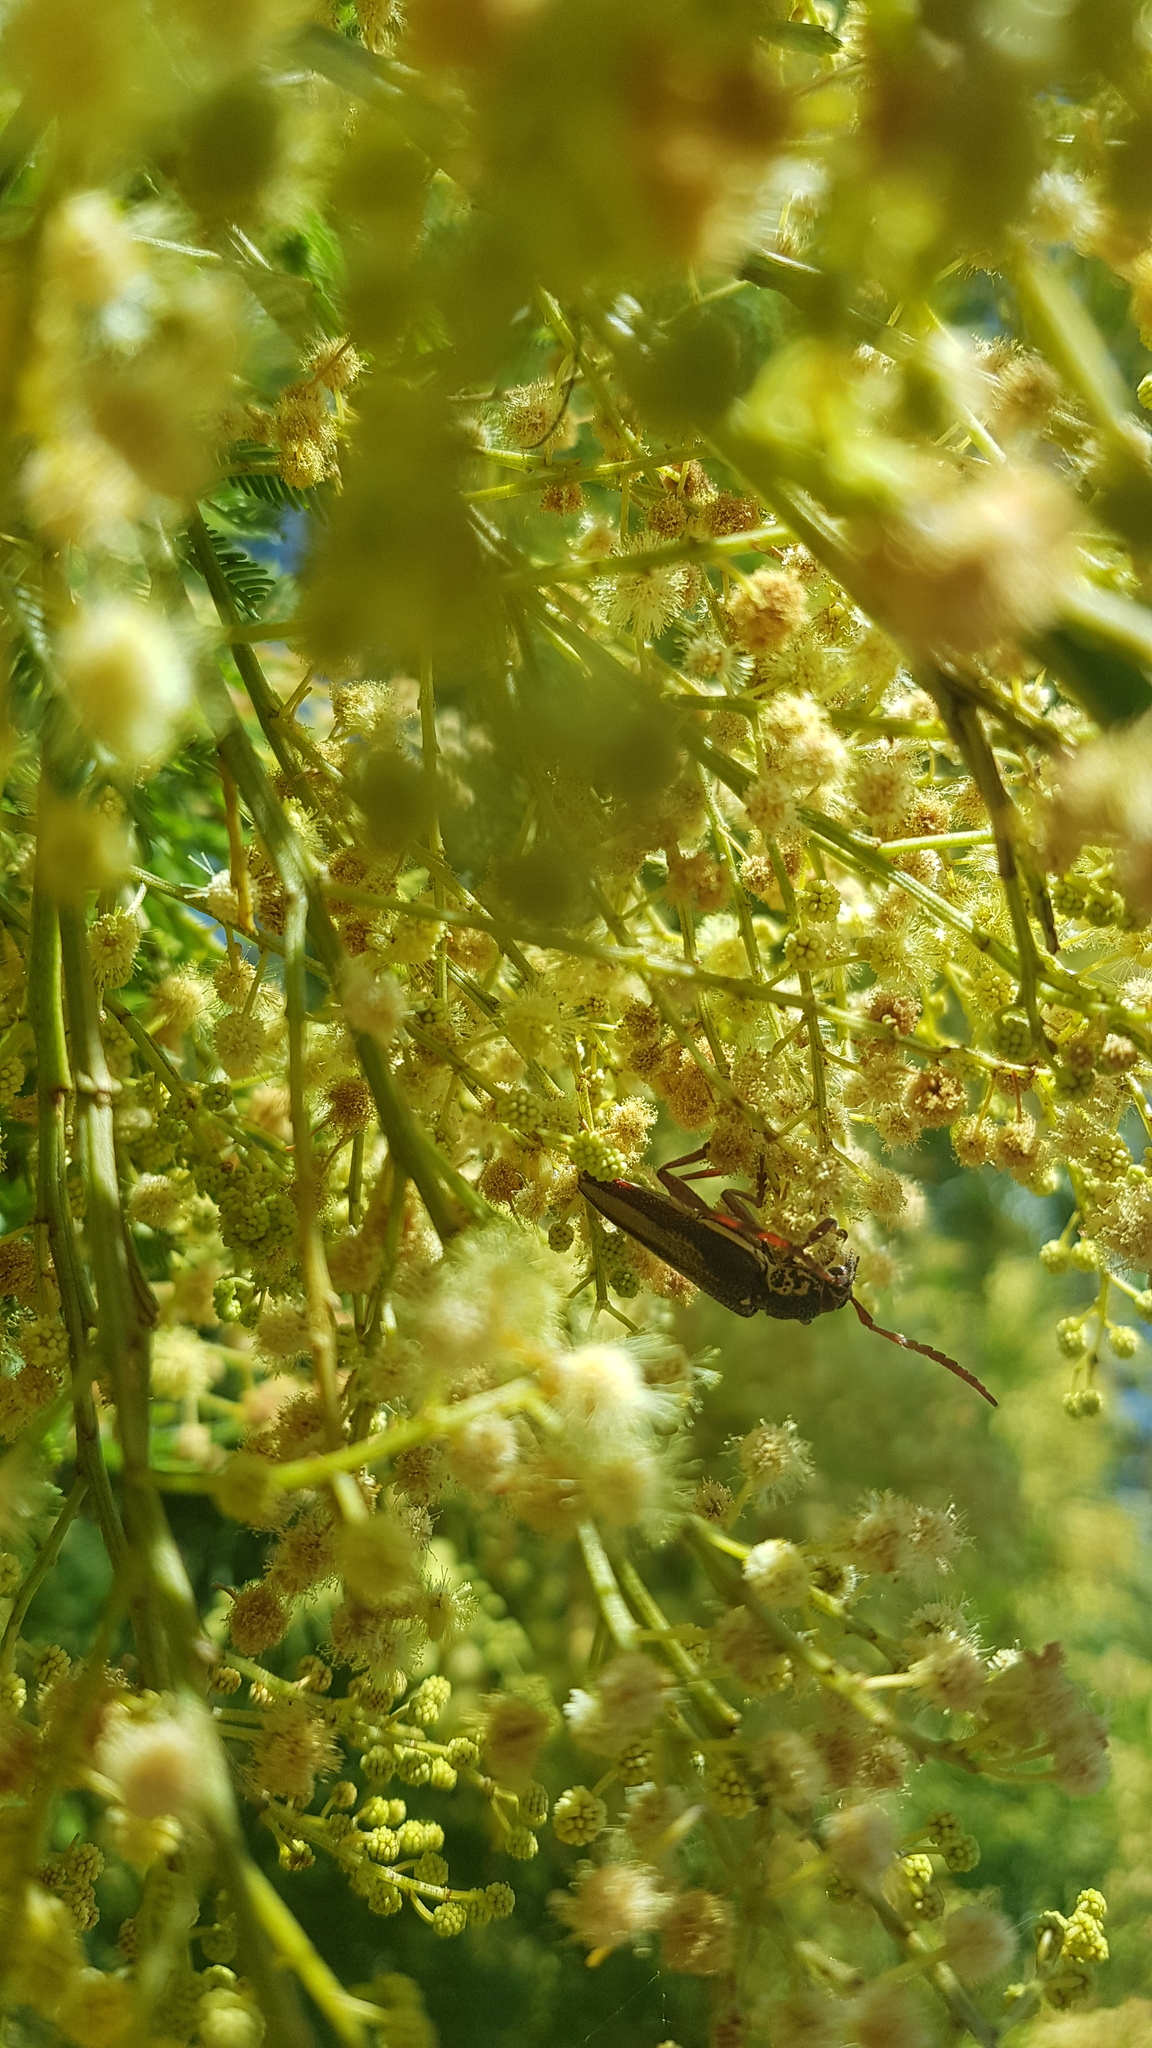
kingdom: Animalia
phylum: Arthropoda
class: Insecta
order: Coleoptera
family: Cerambycidae
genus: Piesarthrius
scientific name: Piesarthrius marginellus
